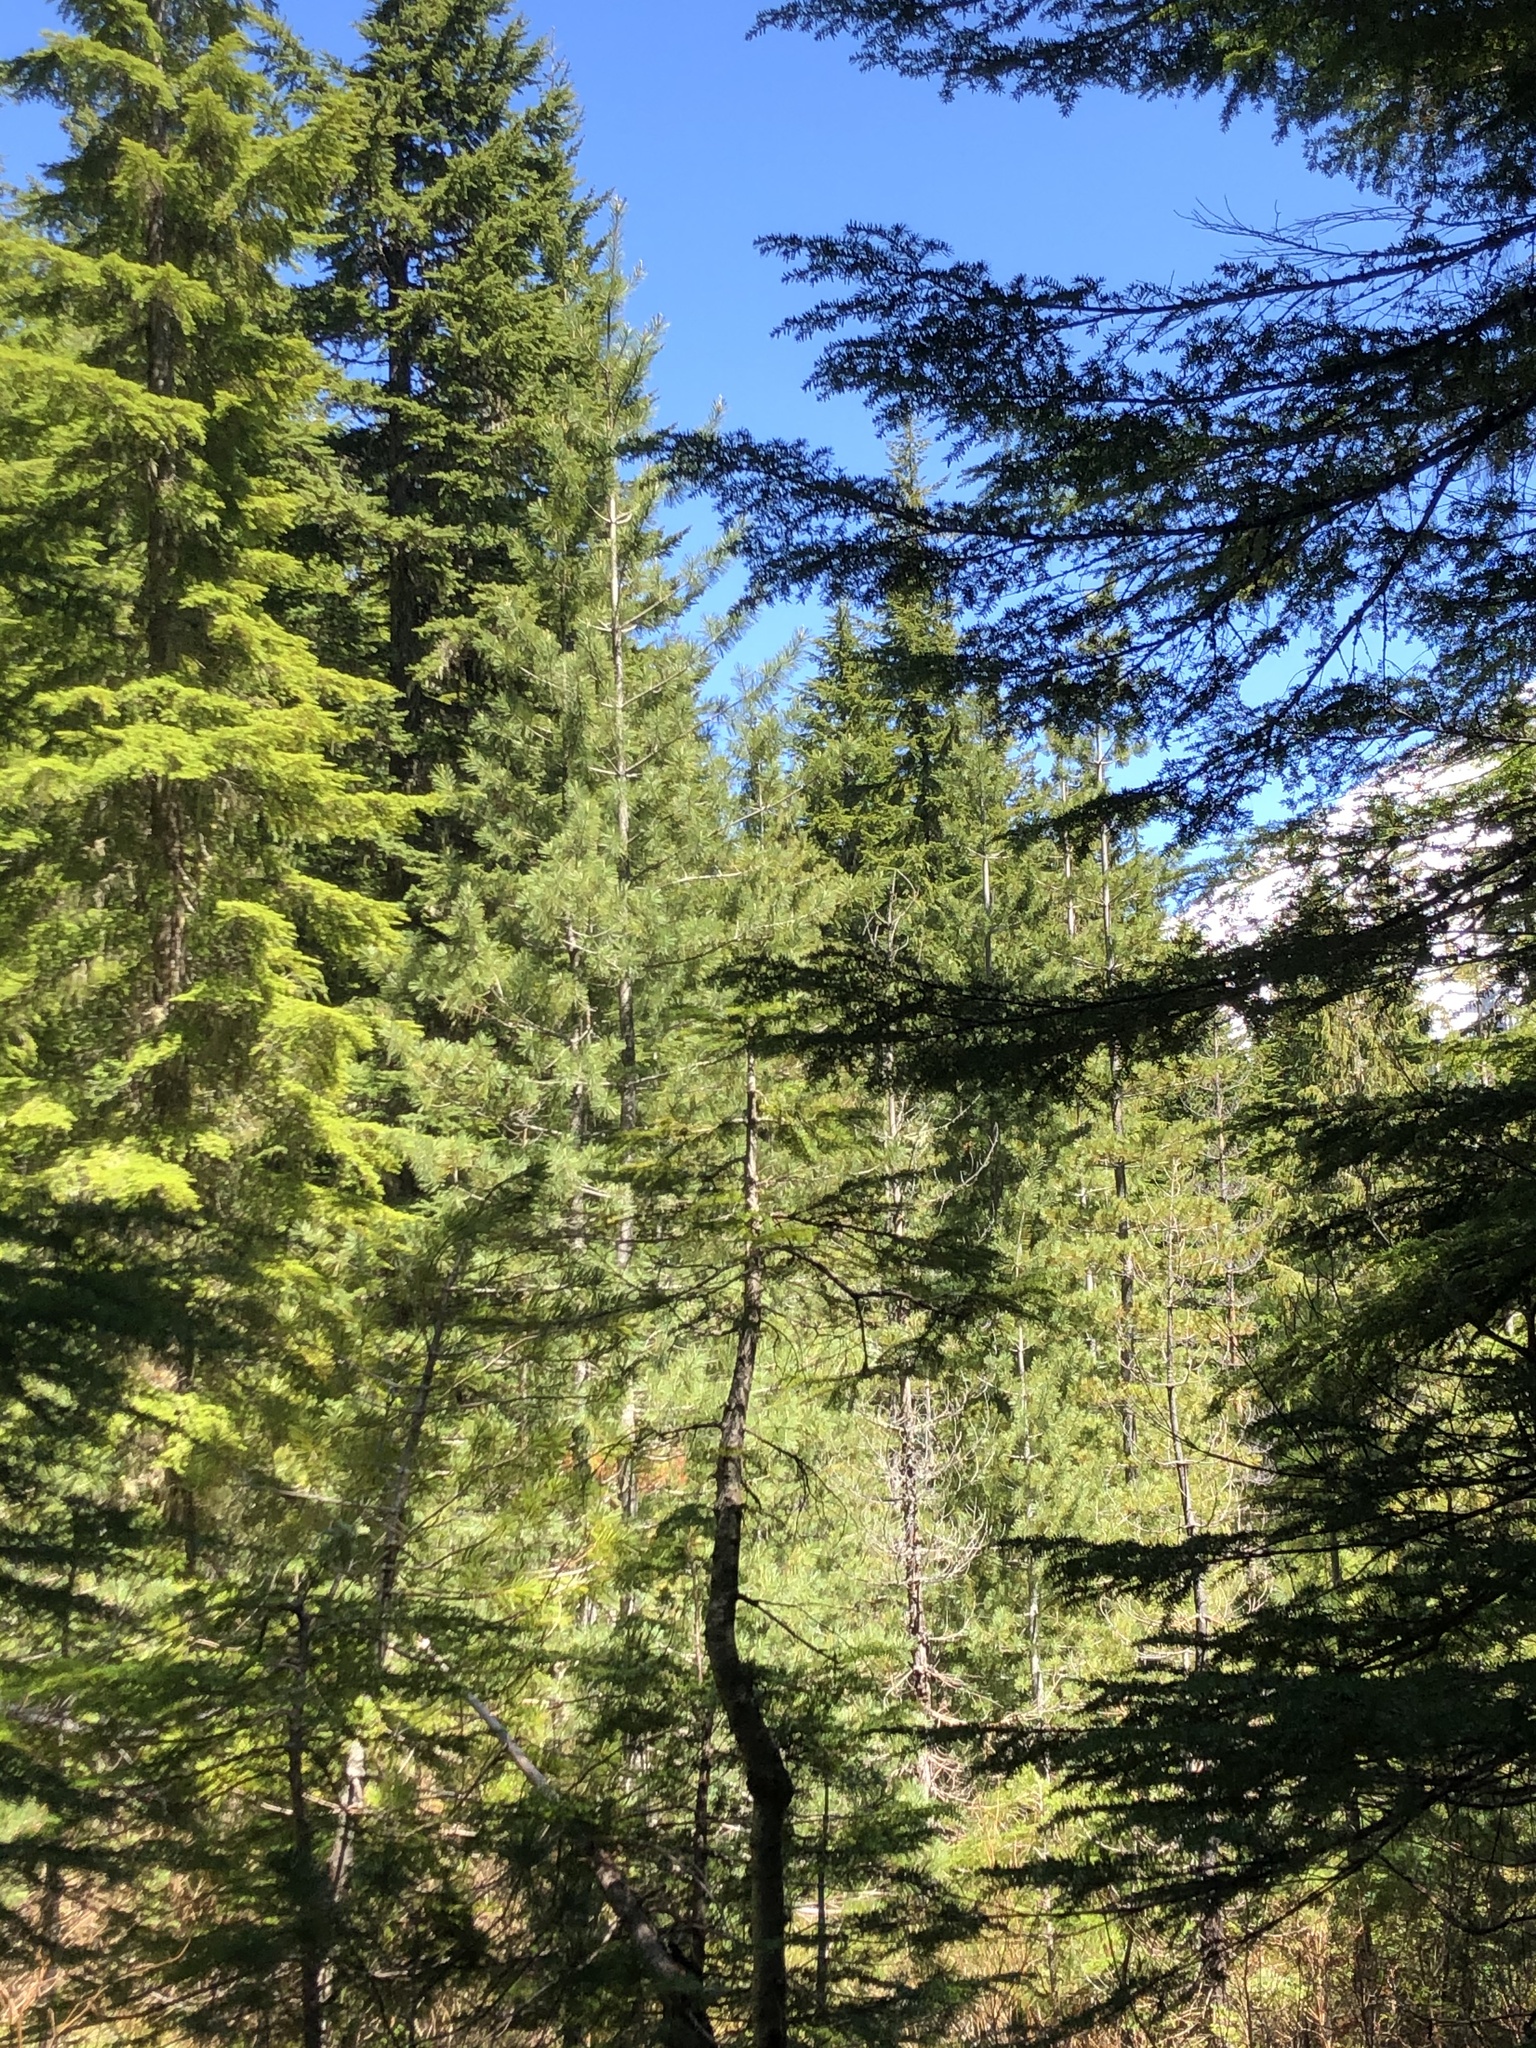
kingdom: Plantae
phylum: Tracheophyta
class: Pinopsida
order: Pinales
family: Pinaceae
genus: Pinus
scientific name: Pinus monticola
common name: Western white pine
